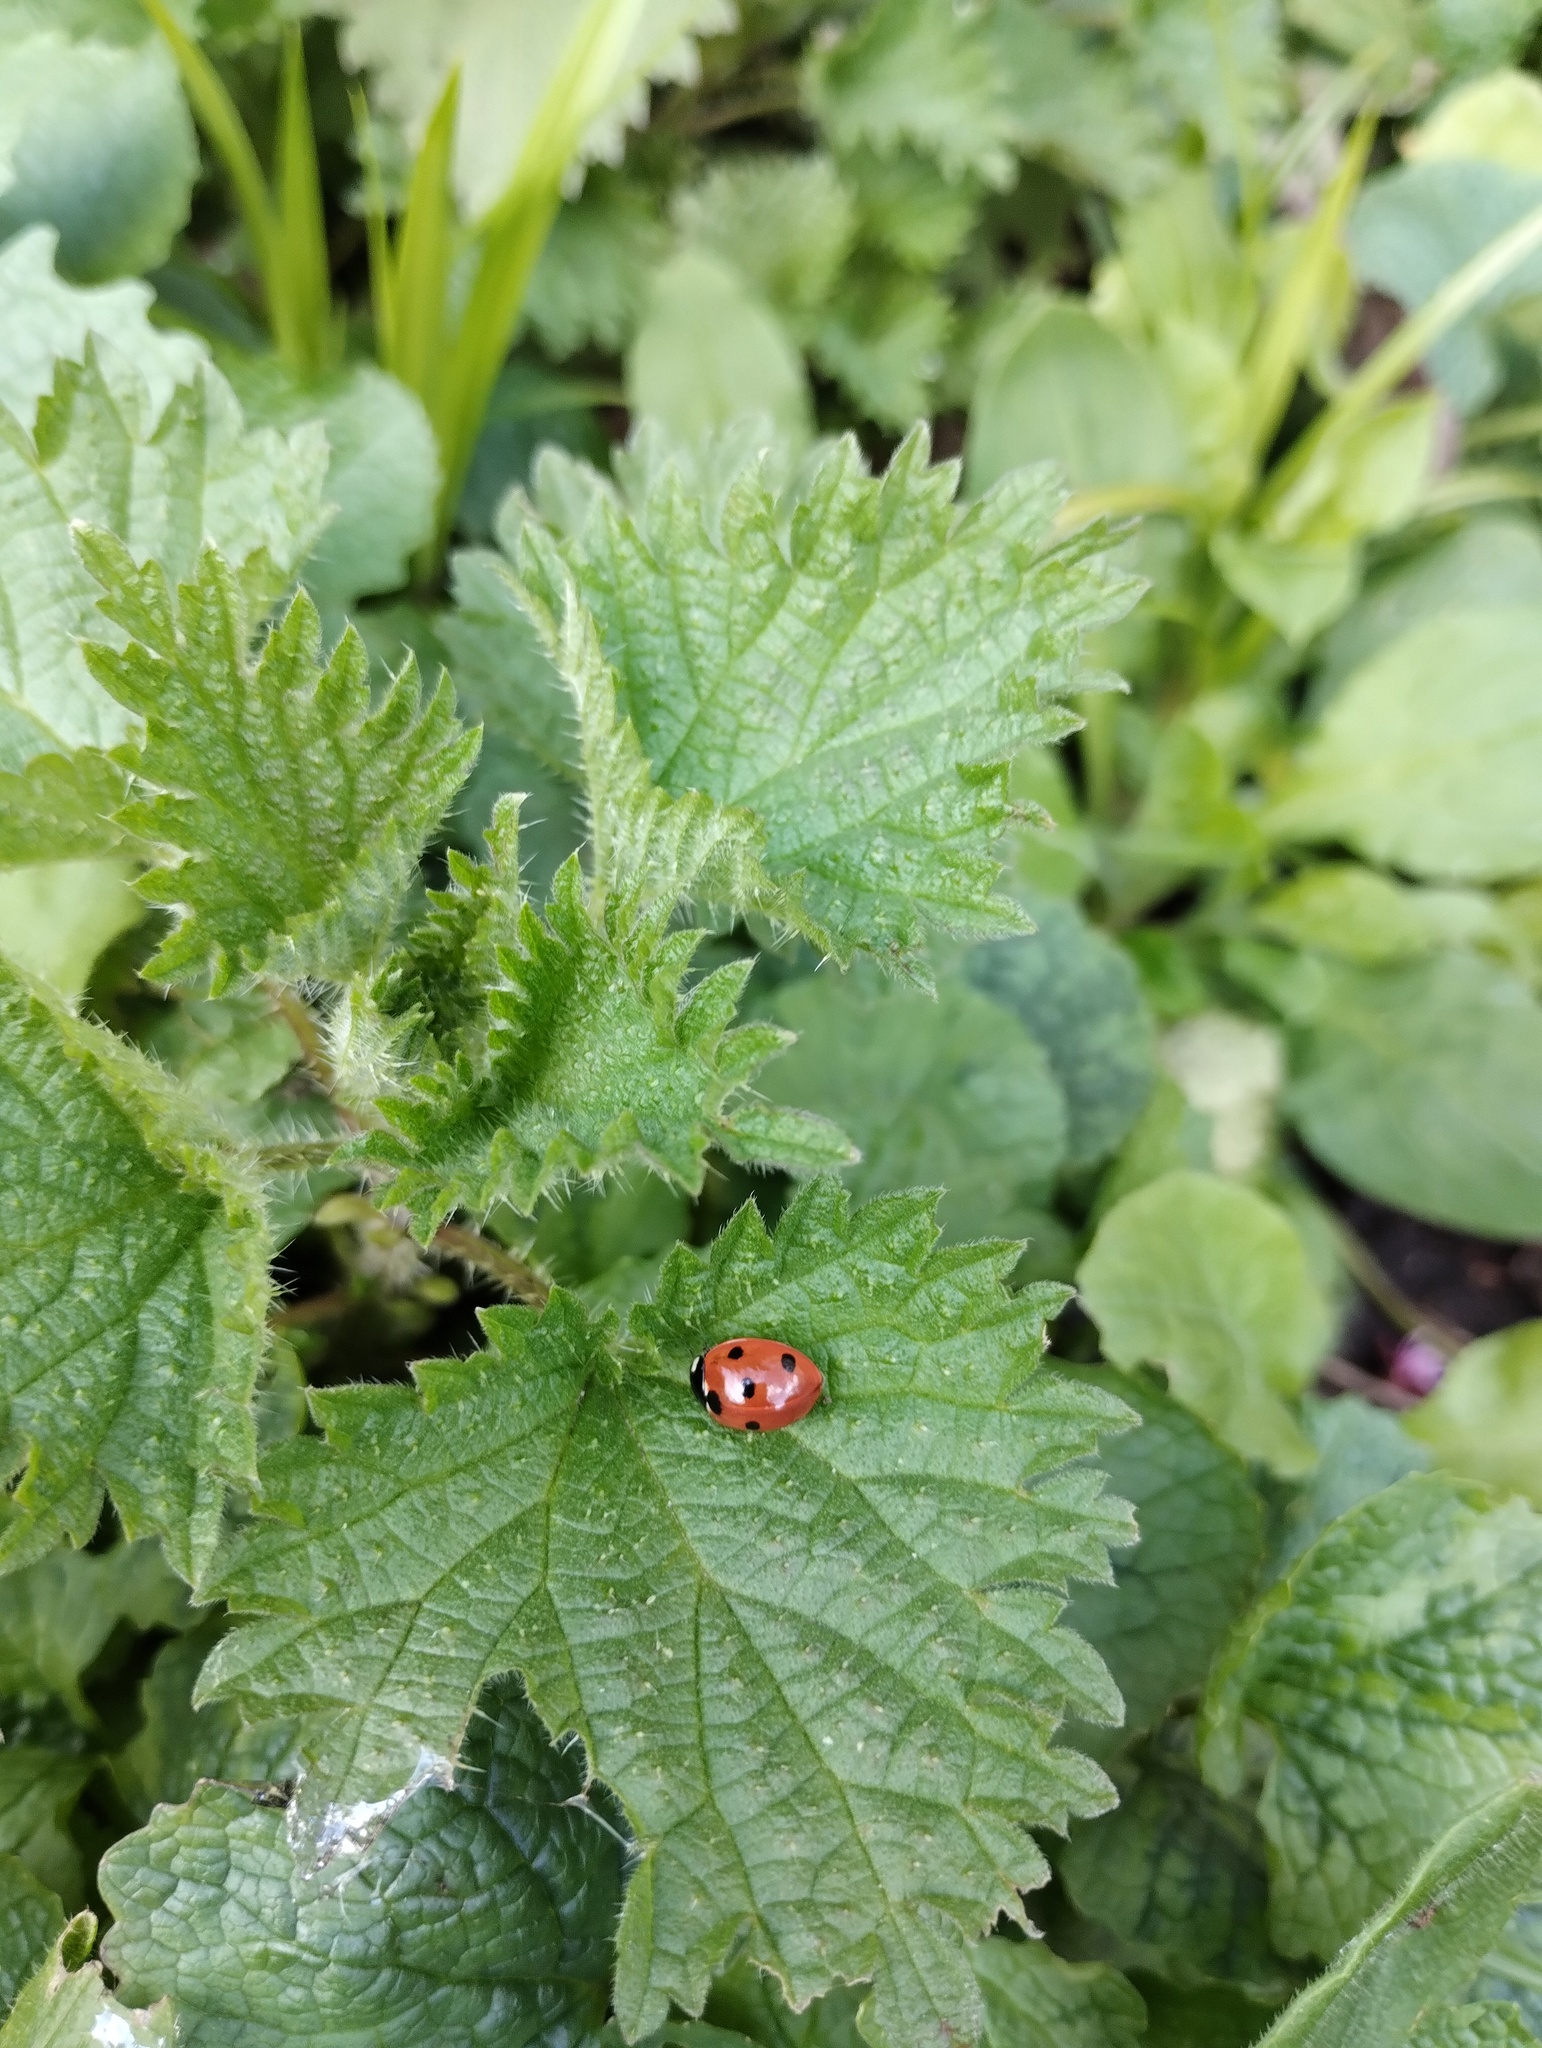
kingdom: Animalia
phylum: Arthropoda
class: Insecta
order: Coleoptera
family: Coccinellidae
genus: Coccinella
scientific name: Coccinella septempunctata
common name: Sevenspotted lady beetle
